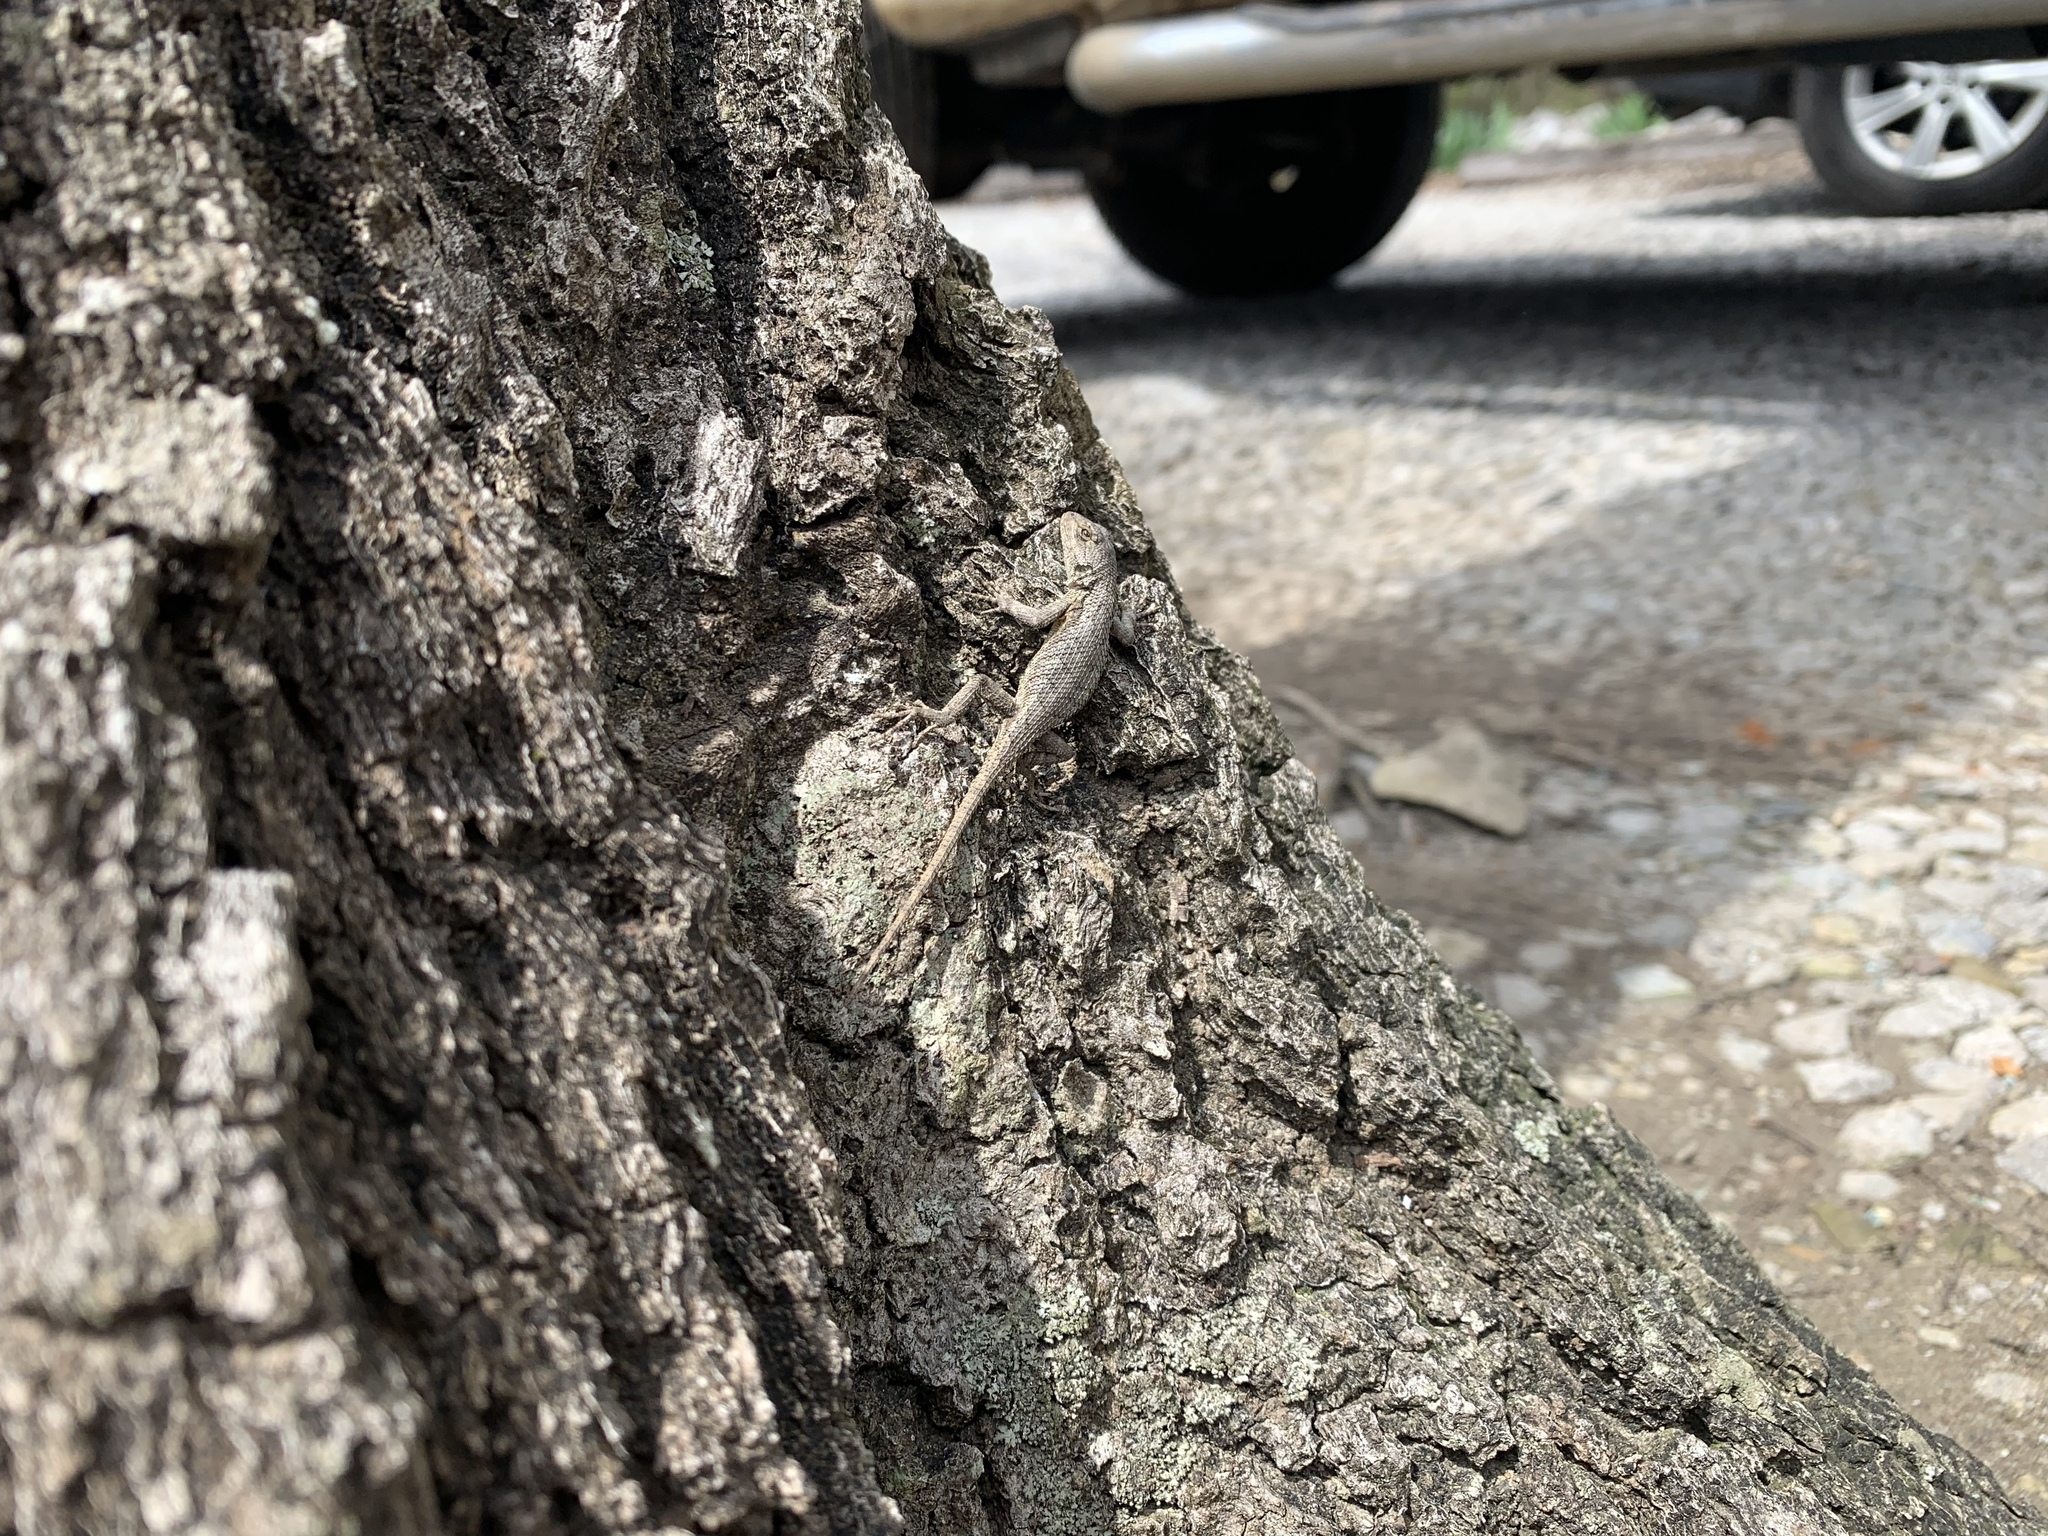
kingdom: Animalia
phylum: Chordata
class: Squamata
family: Phrynosomatidae
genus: Sceloporus
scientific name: Sceloporus undulatus
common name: Eastern fence lizard
